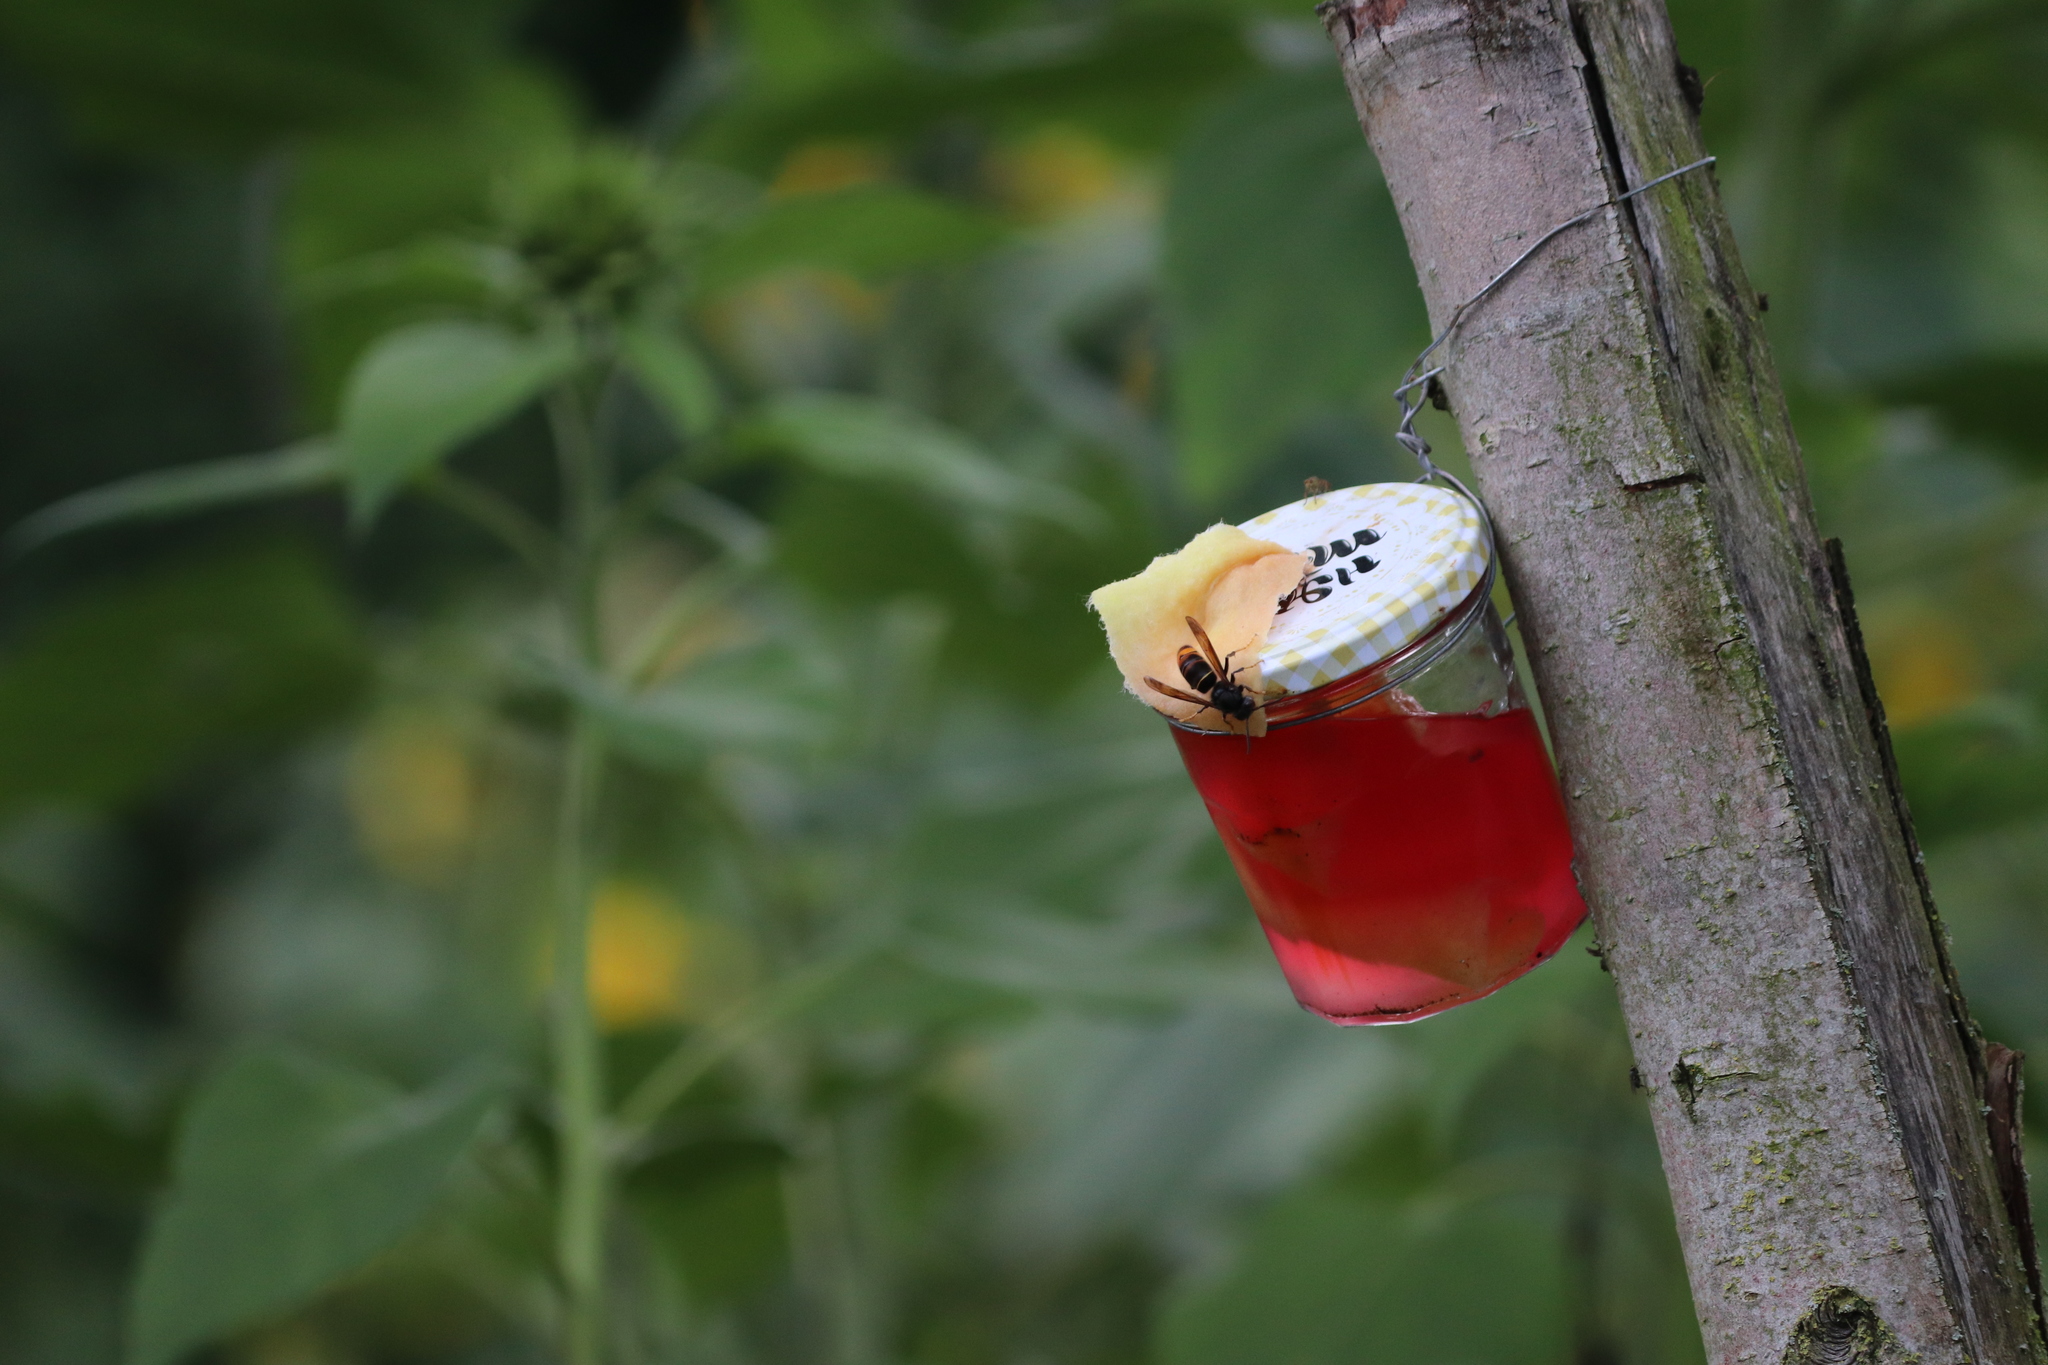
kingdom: Animalia
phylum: Arthropoda
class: Insecta
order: Hymenoptera
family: Vespidae
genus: Vespa
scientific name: Vespa velutina
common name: Asian hornet
